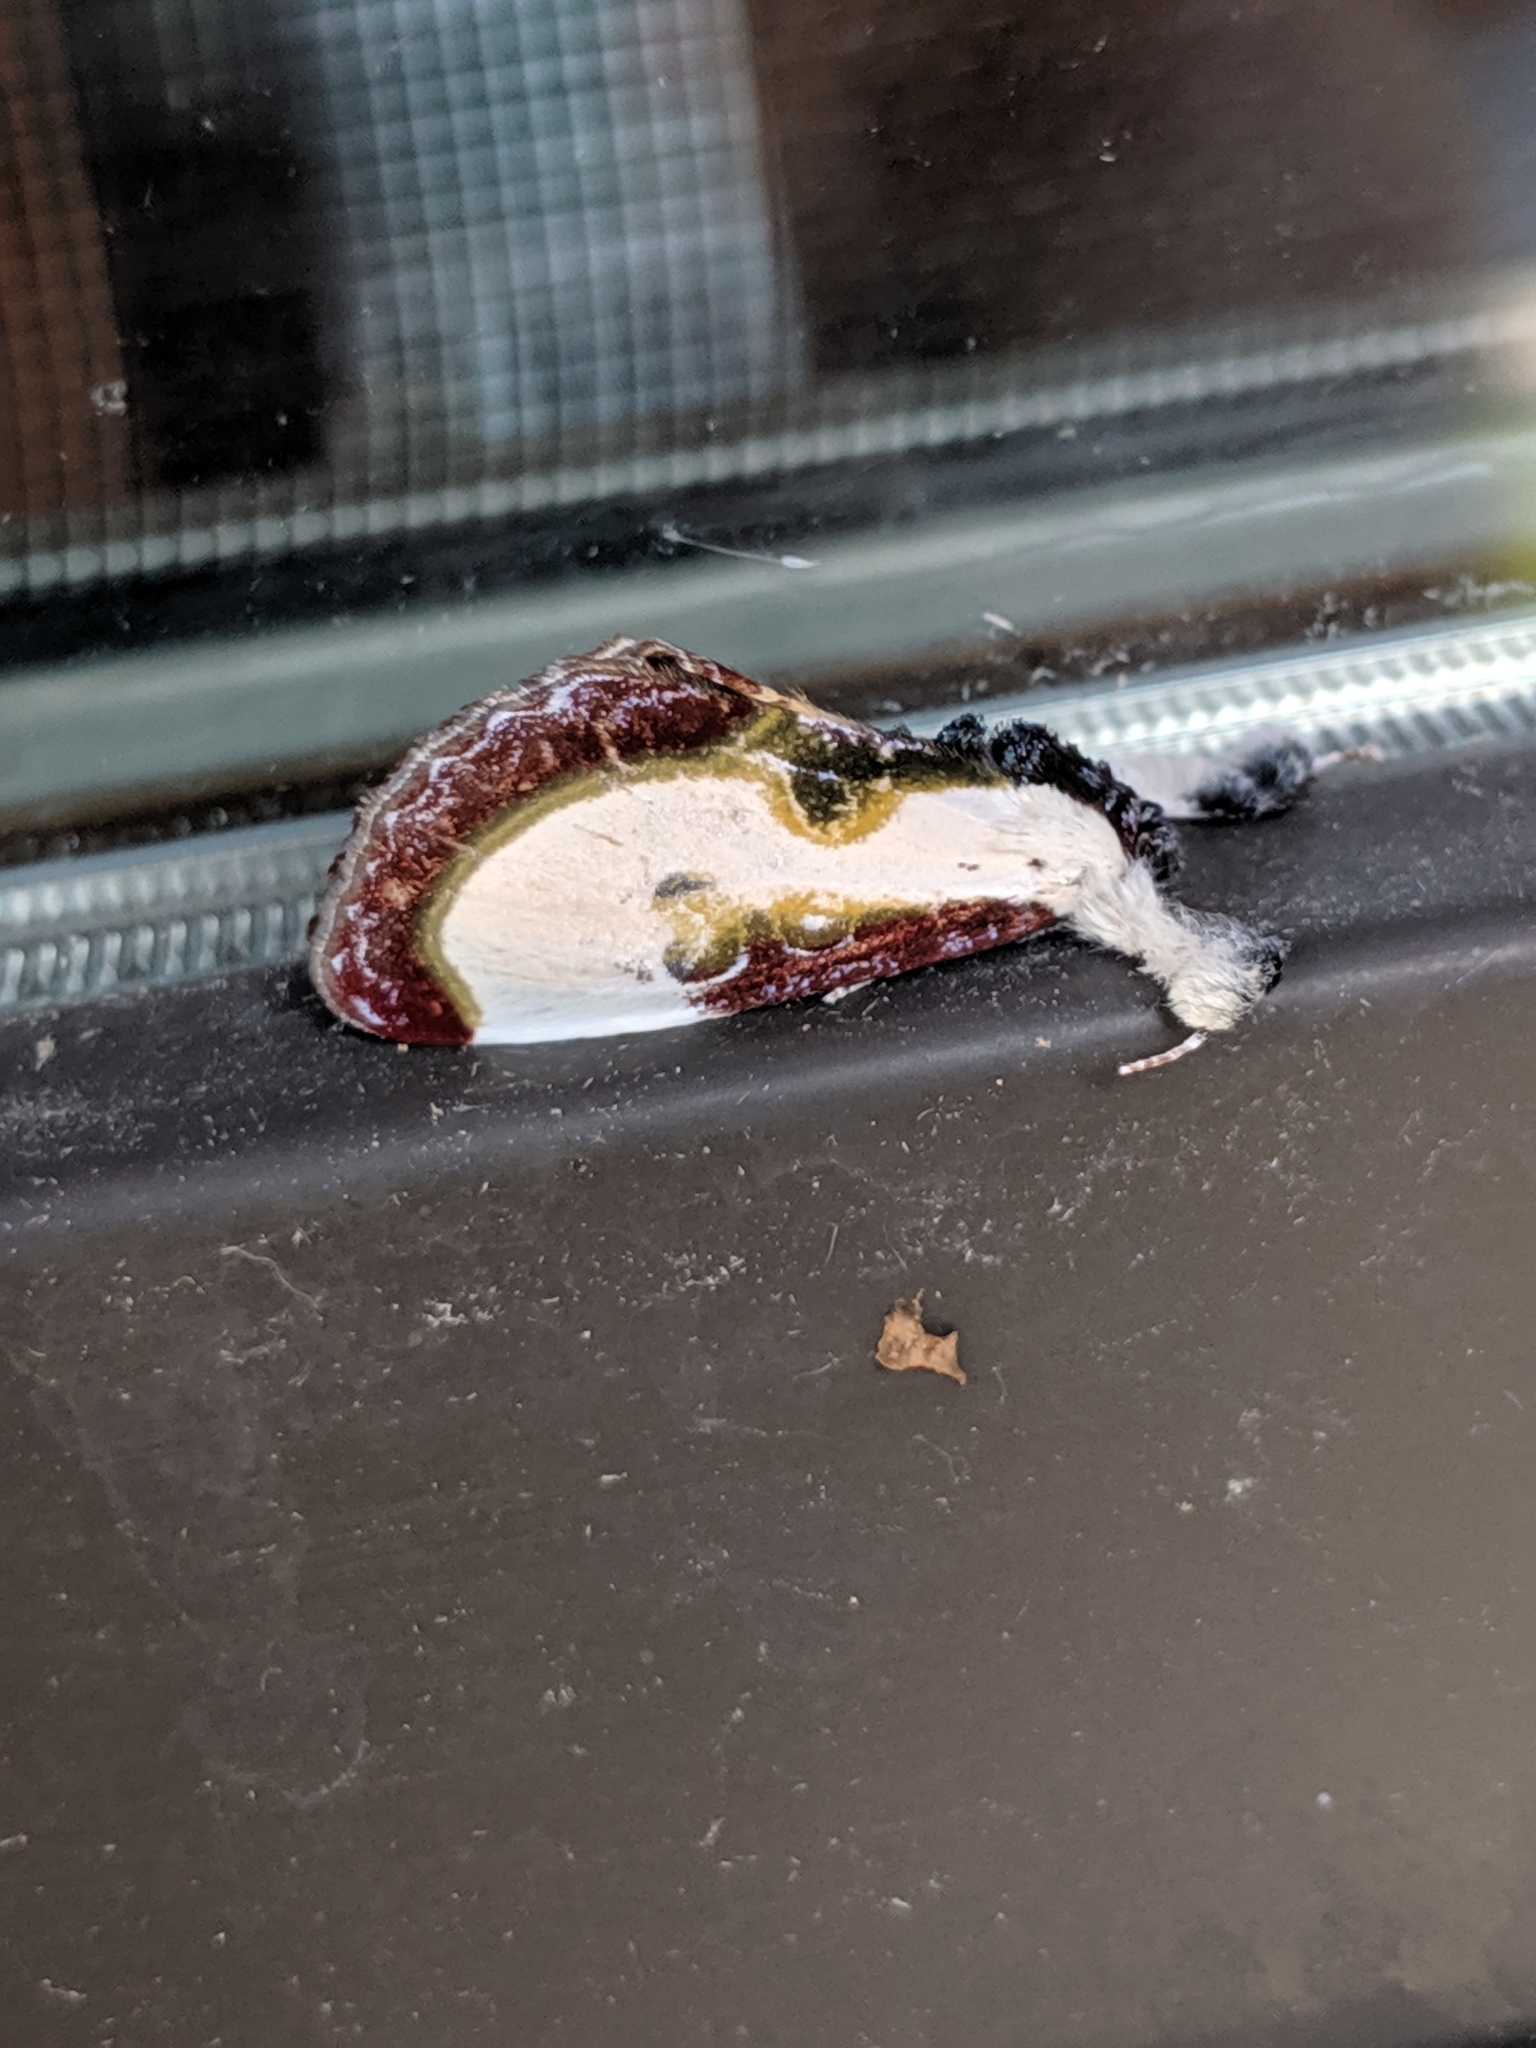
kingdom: Animalia
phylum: Arthropoda
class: Insecta
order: Lepidoptera
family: Noctuidae
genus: Eudryas
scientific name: Eudryas grata
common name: Beautiful wood-nymph
